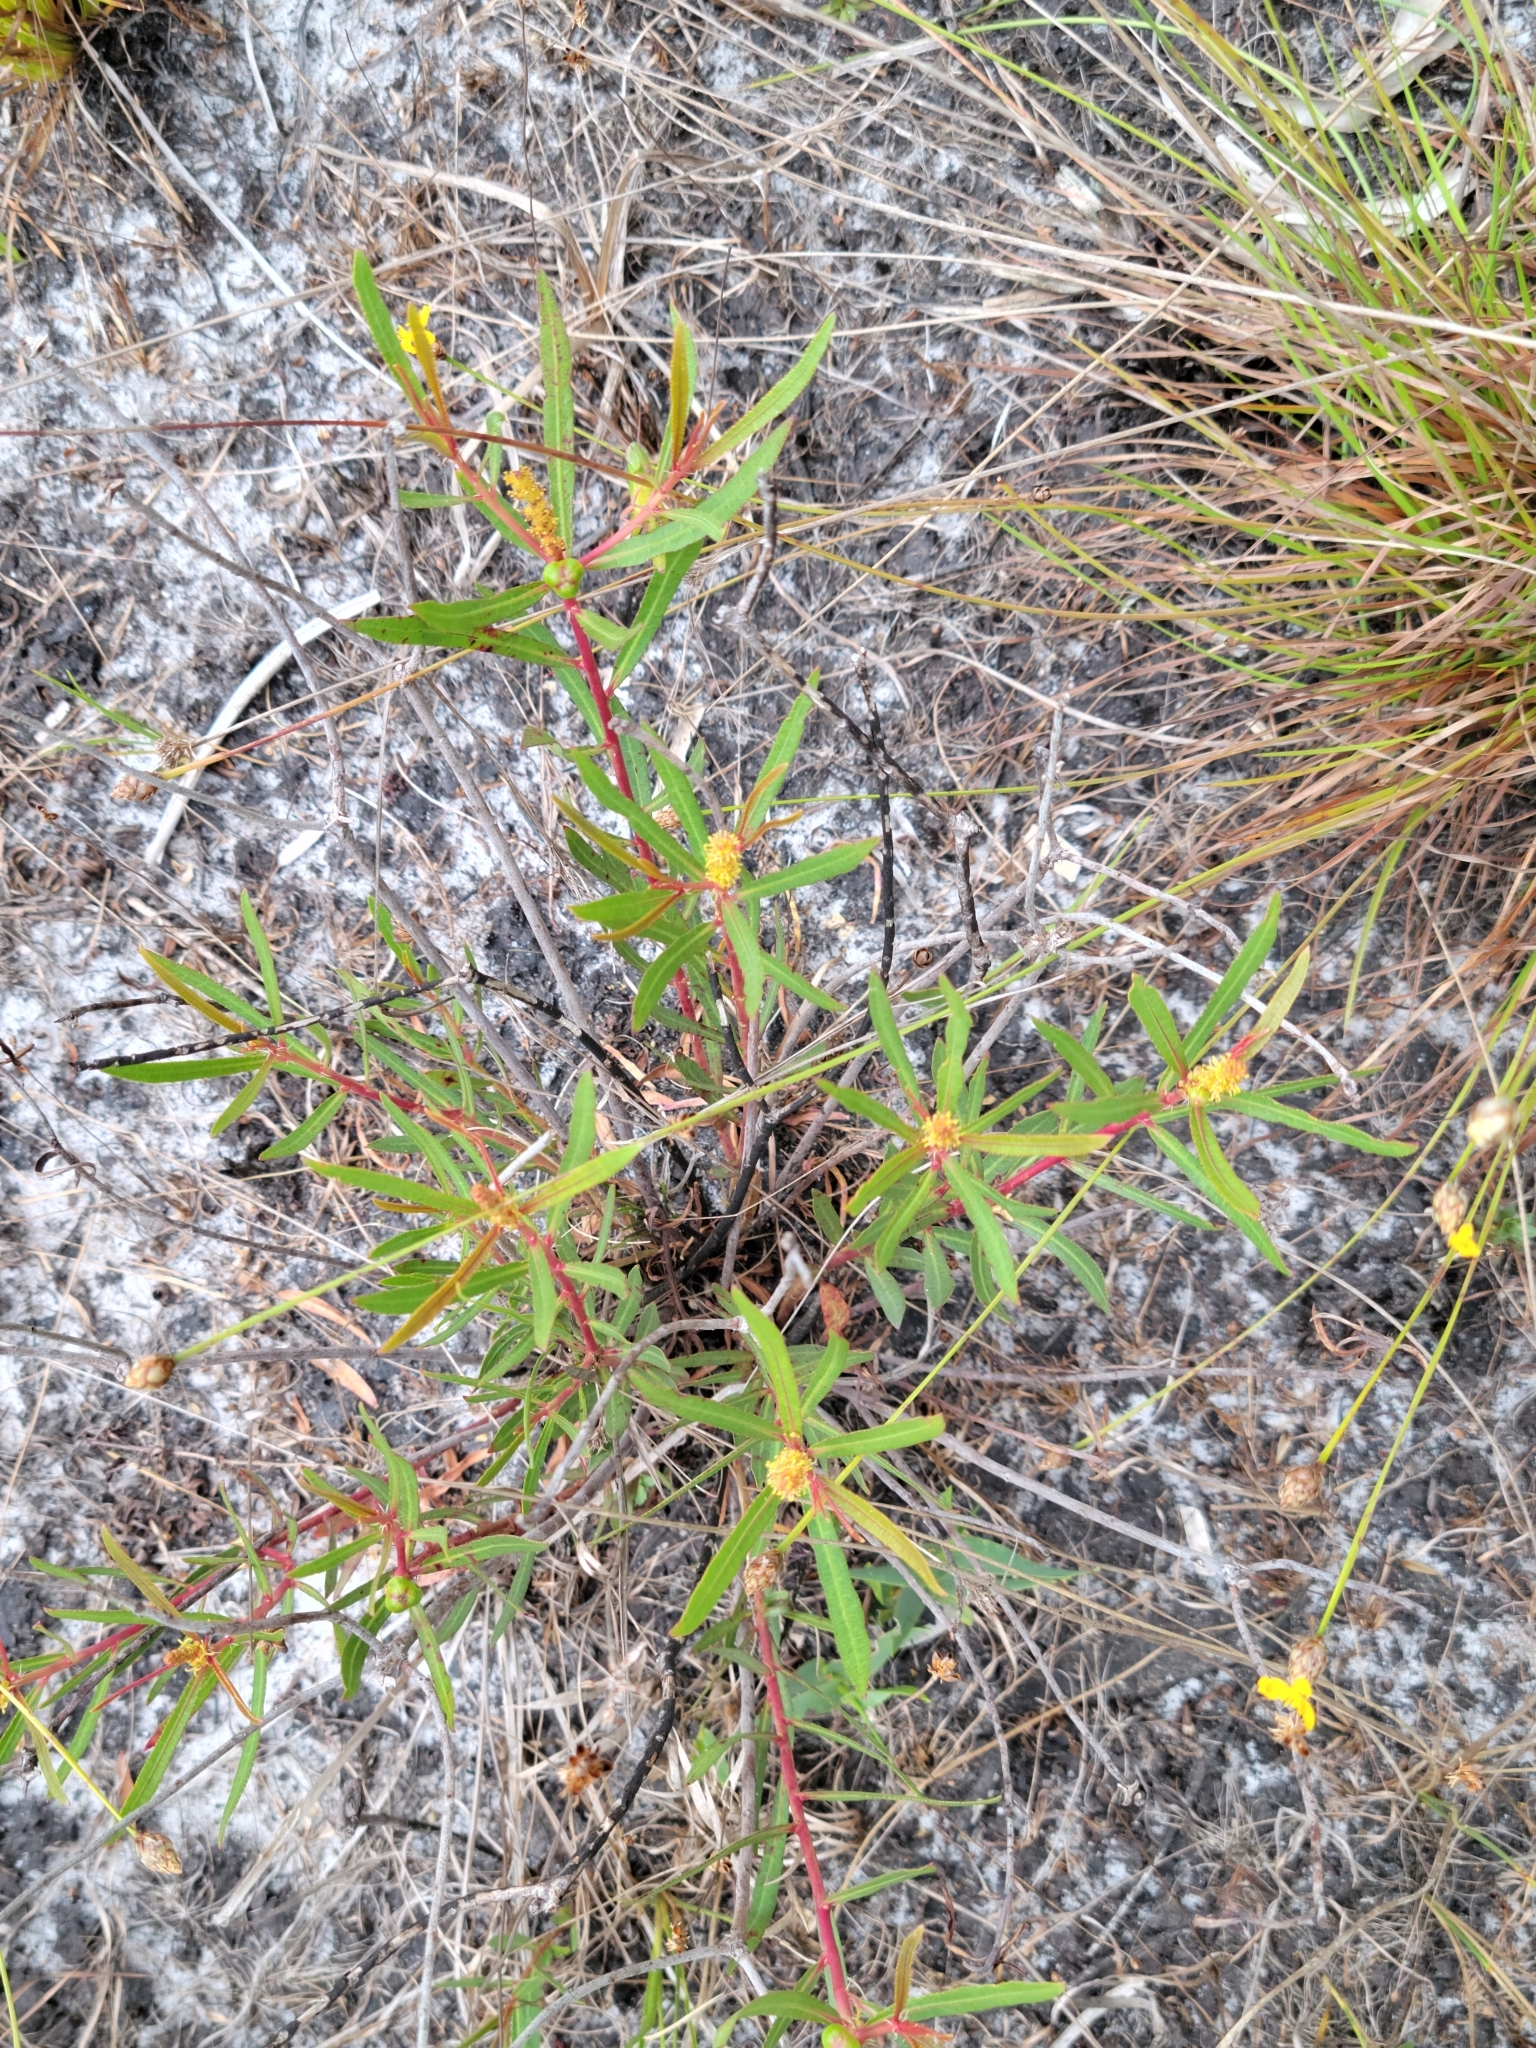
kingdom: Plantae
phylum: Tracheophyta
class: Magnoliopsida
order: Malpighiales
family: Euphorbiaceae
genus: Stillingia
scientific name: Stillingia sylvatica
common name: Queen's-delight
